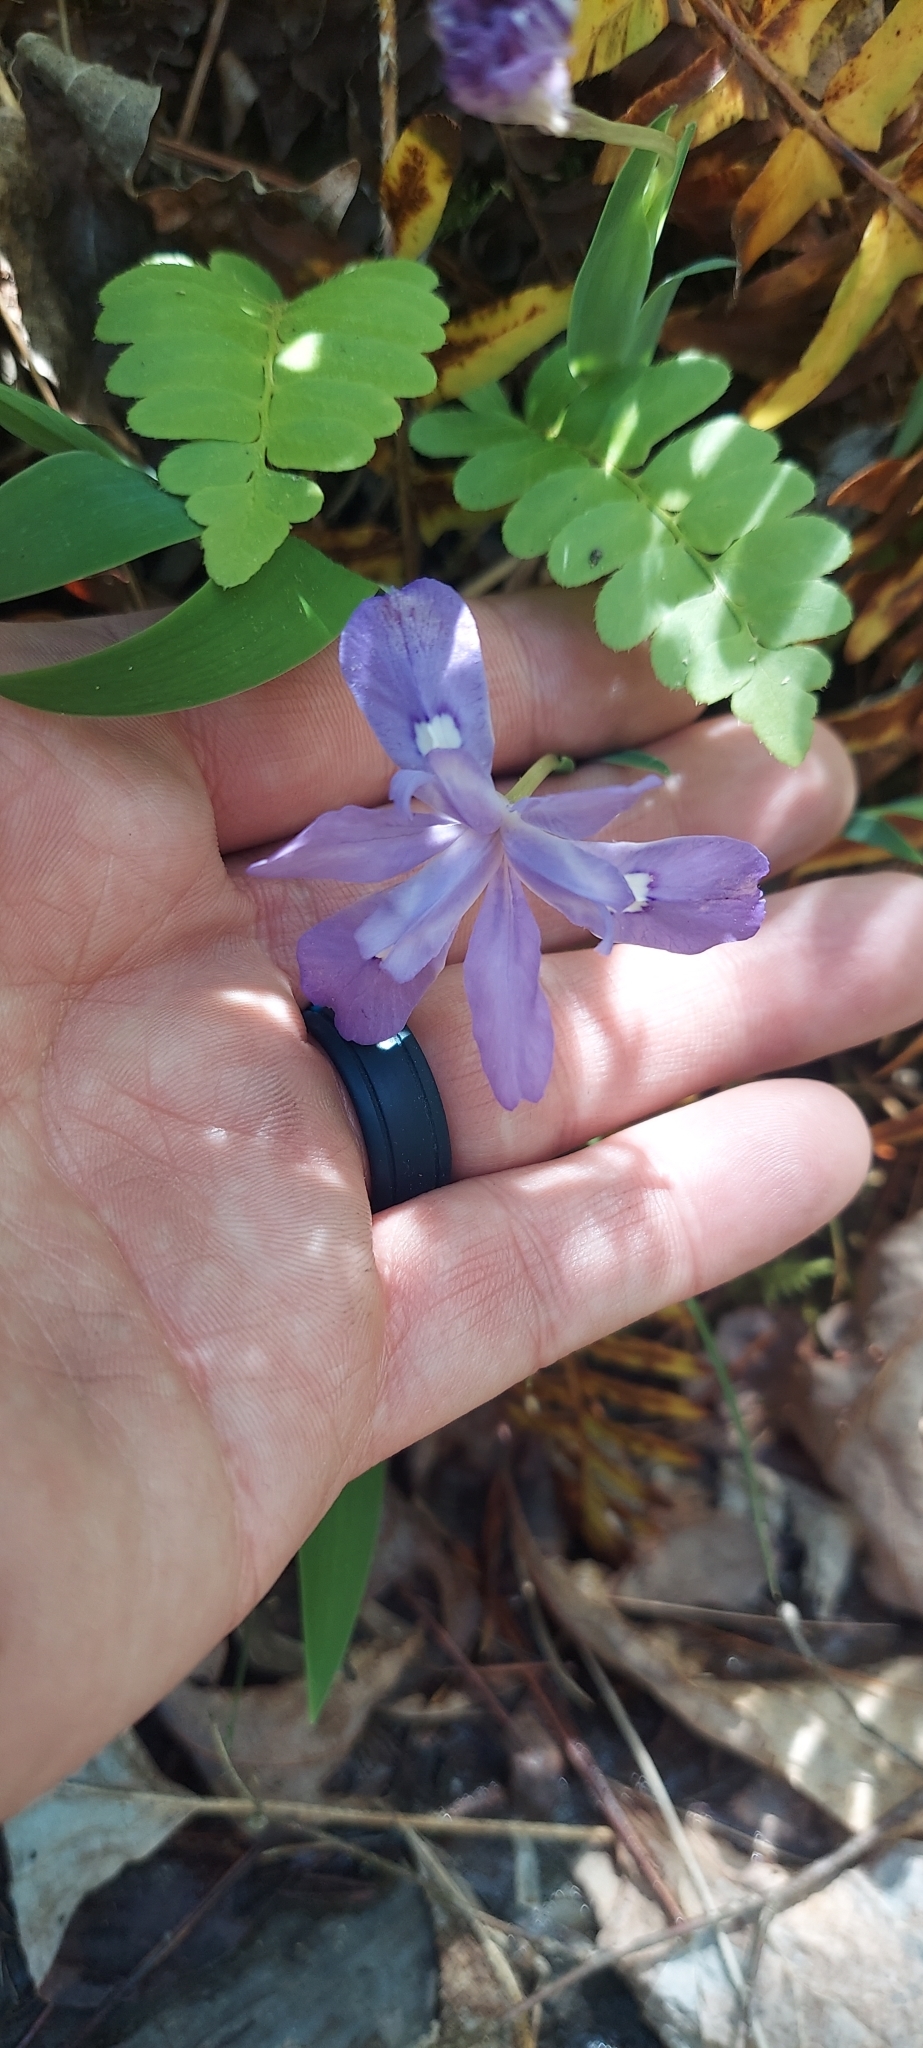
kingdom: Plantae
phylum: Tracheophyta
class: Liliopsida
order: Asparagales
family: Iridaceae
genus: Iris
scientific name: Iris cristata
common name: Crested iris
